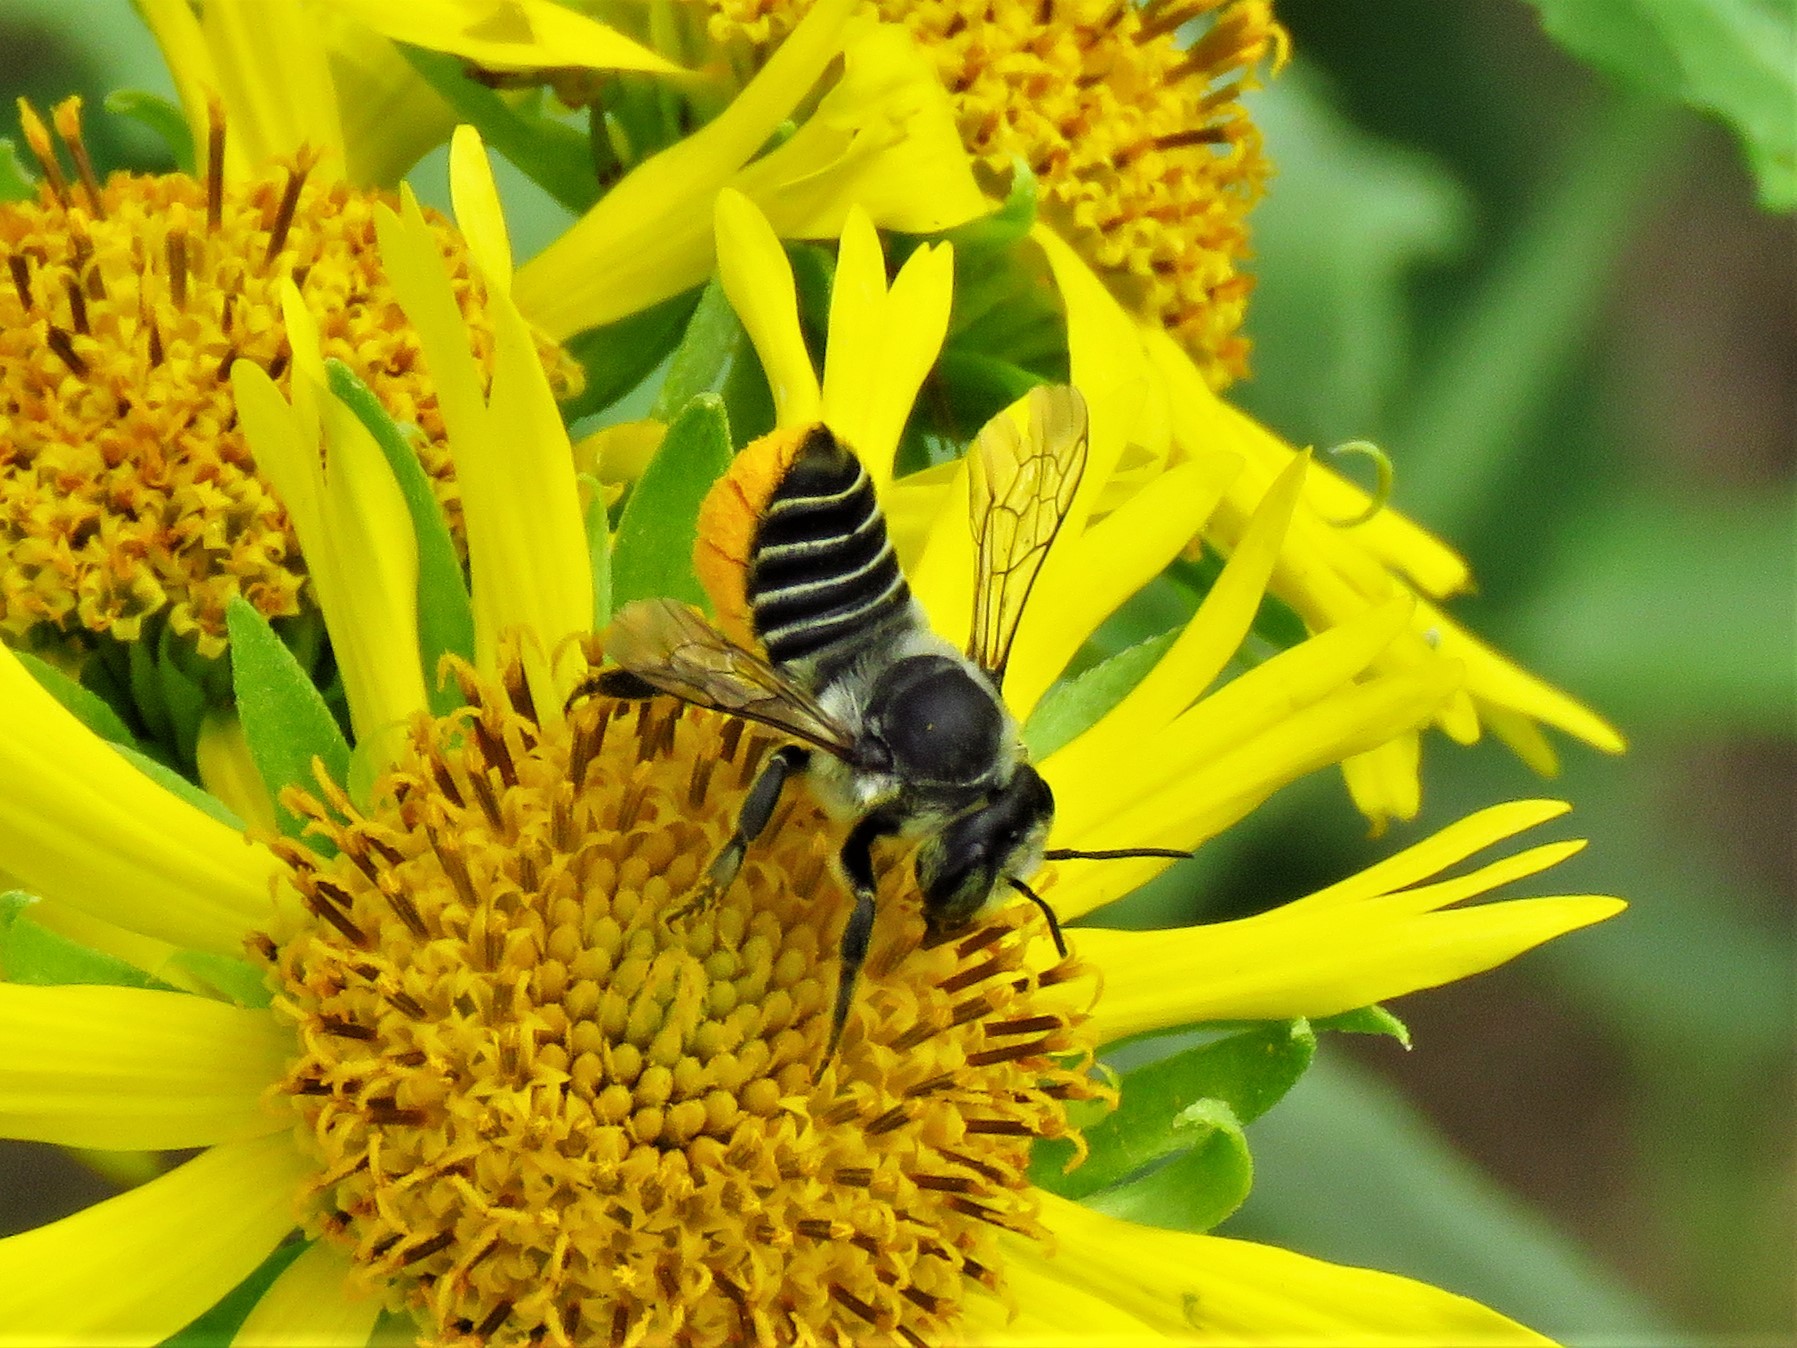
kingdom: Animalia
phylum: Arthropoda
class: Insecta
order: Hymenoptera
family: Megachilidae
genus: Megachile
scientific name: Megachile parallela
